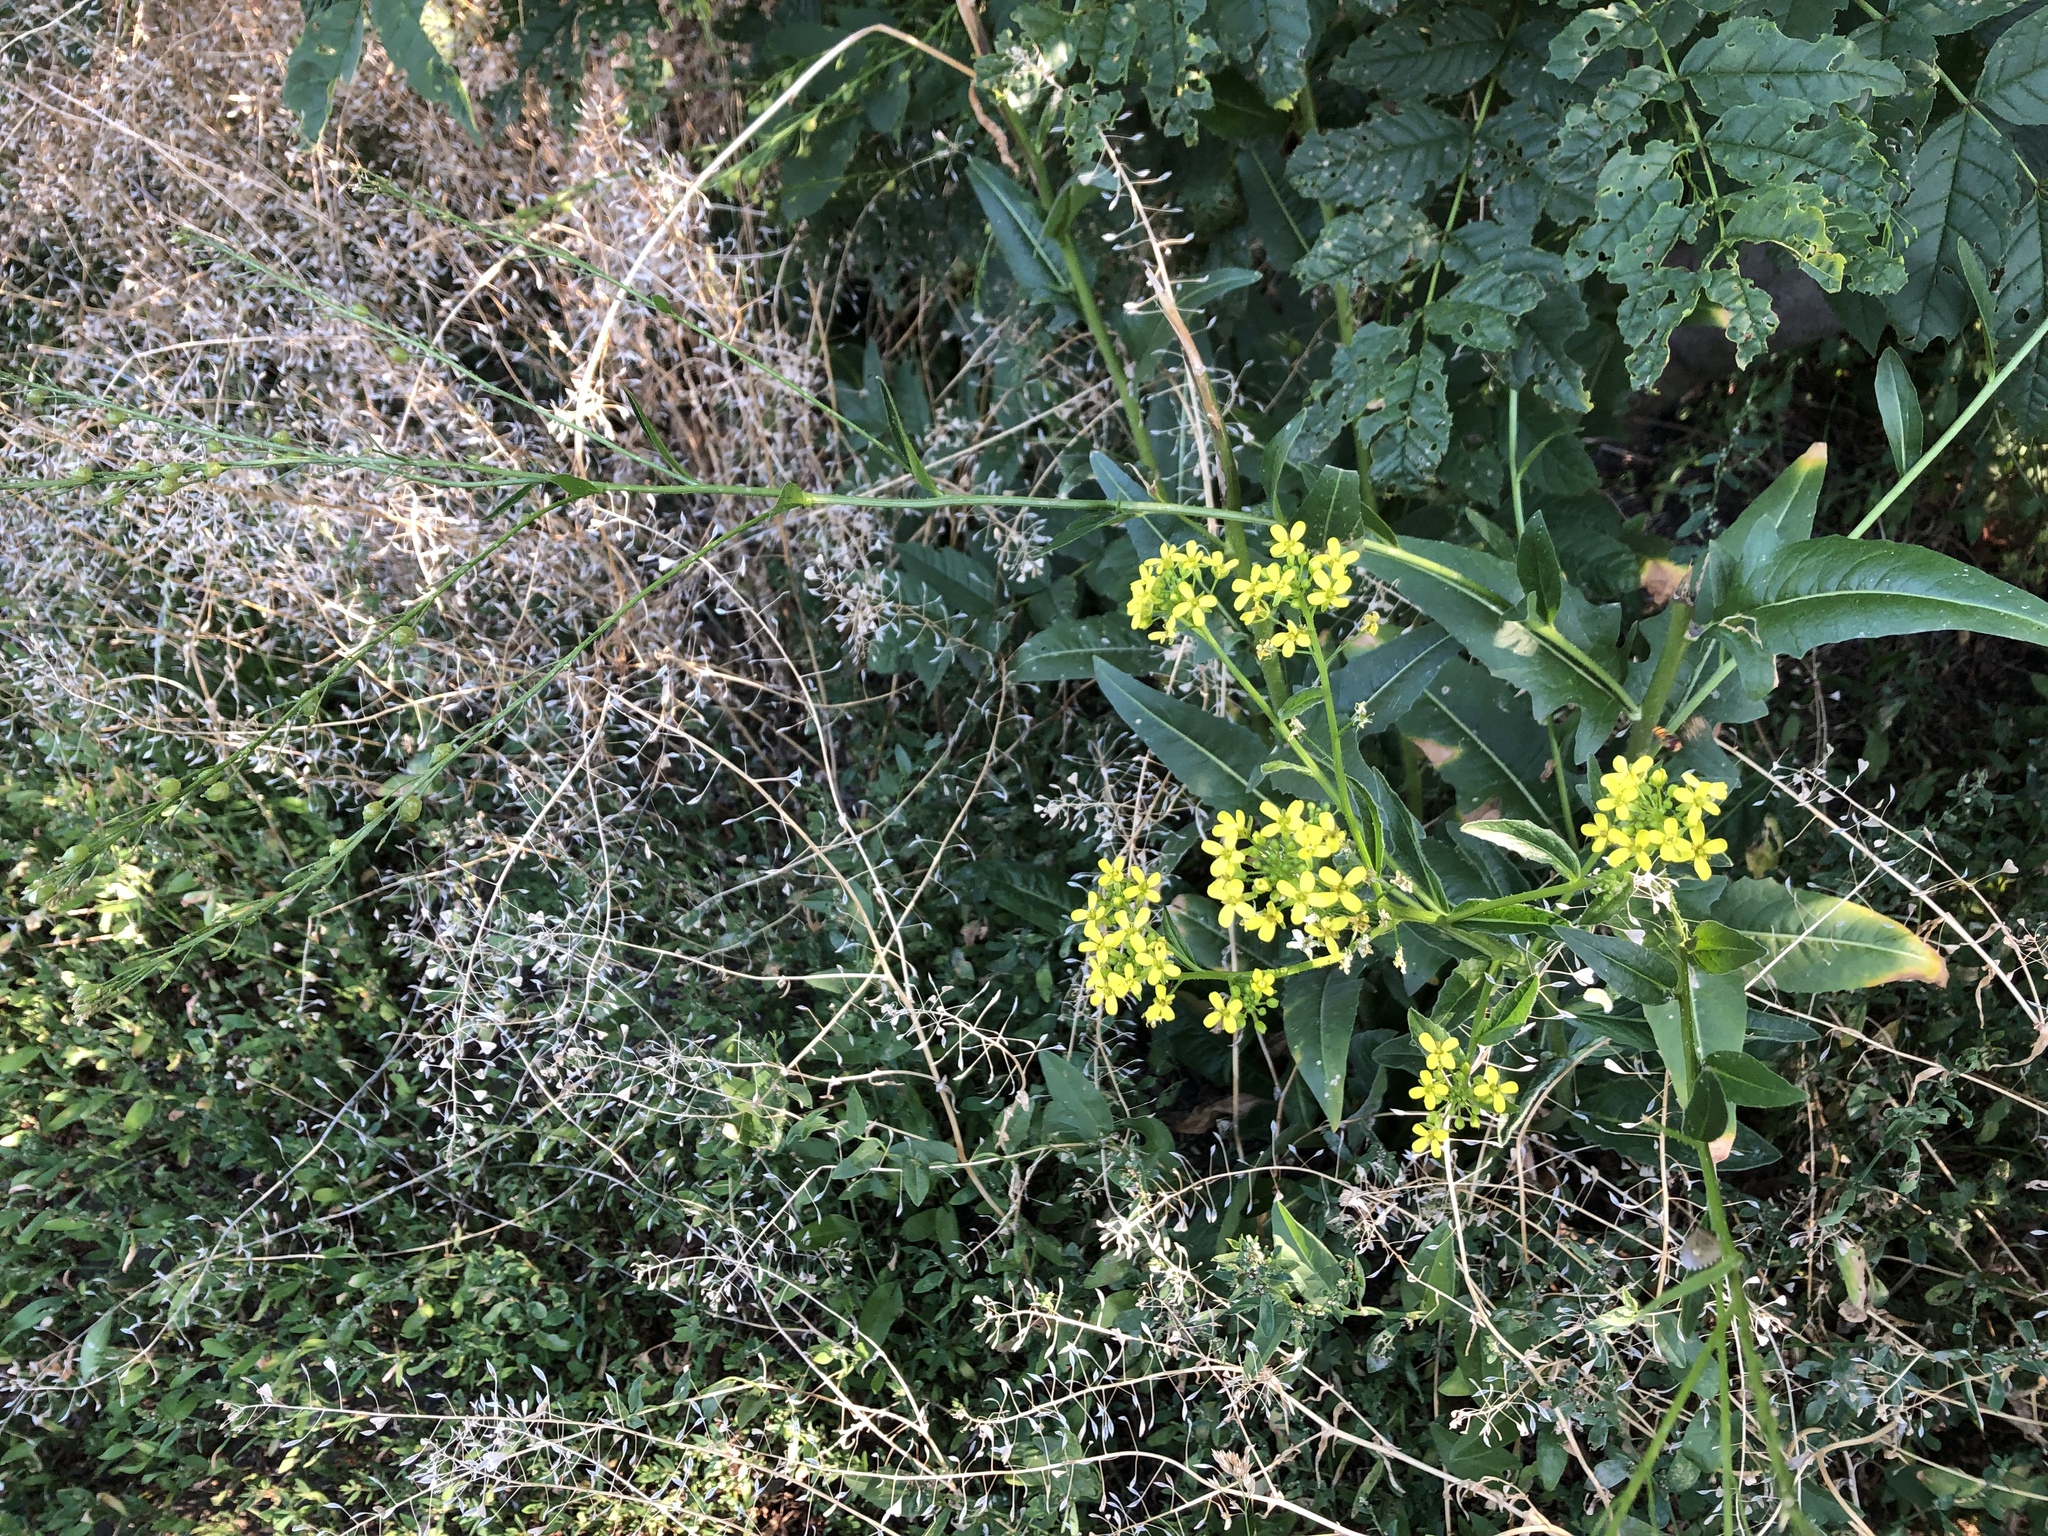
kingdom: Plantae
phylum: Tracheophyta
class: Magnoliopsida
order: Brassicales
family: Brassicaceae
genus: Bunias
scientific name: Bunias orientalis
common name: Warty-cabbage
